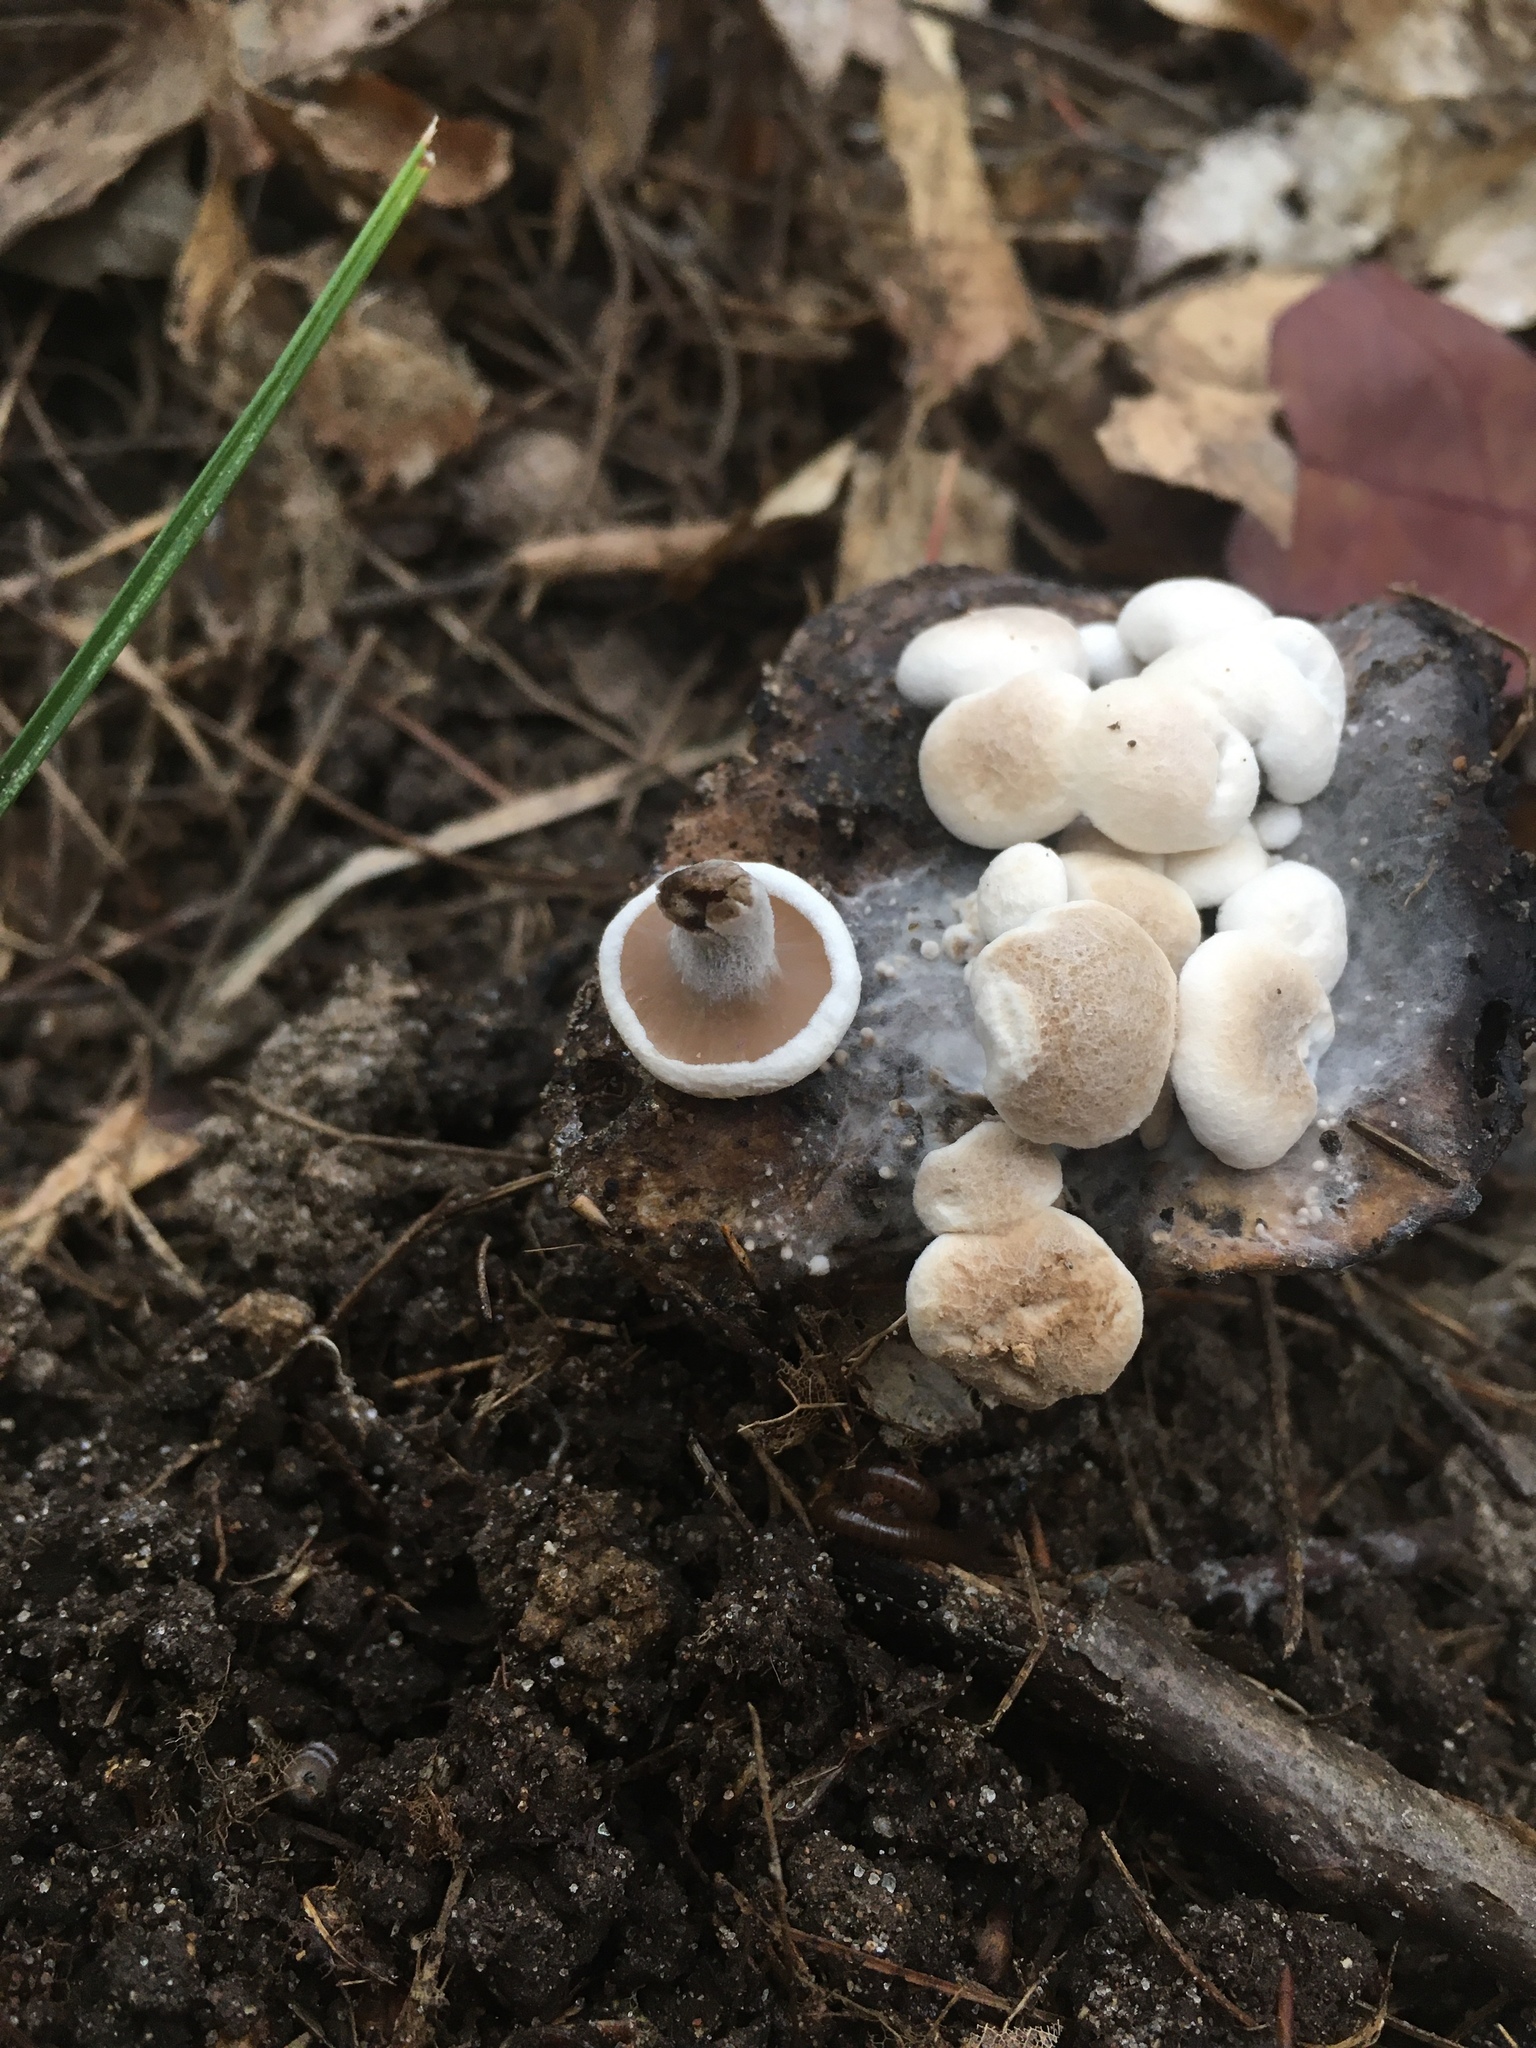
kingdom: Fungi
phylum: Basidiomycota
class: Agaricomycetes
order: Agaricales
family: Lyophyllaceae
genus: Asterophora
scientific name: Asterophora lycoperdoides
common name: Pick-a-back toadstool
